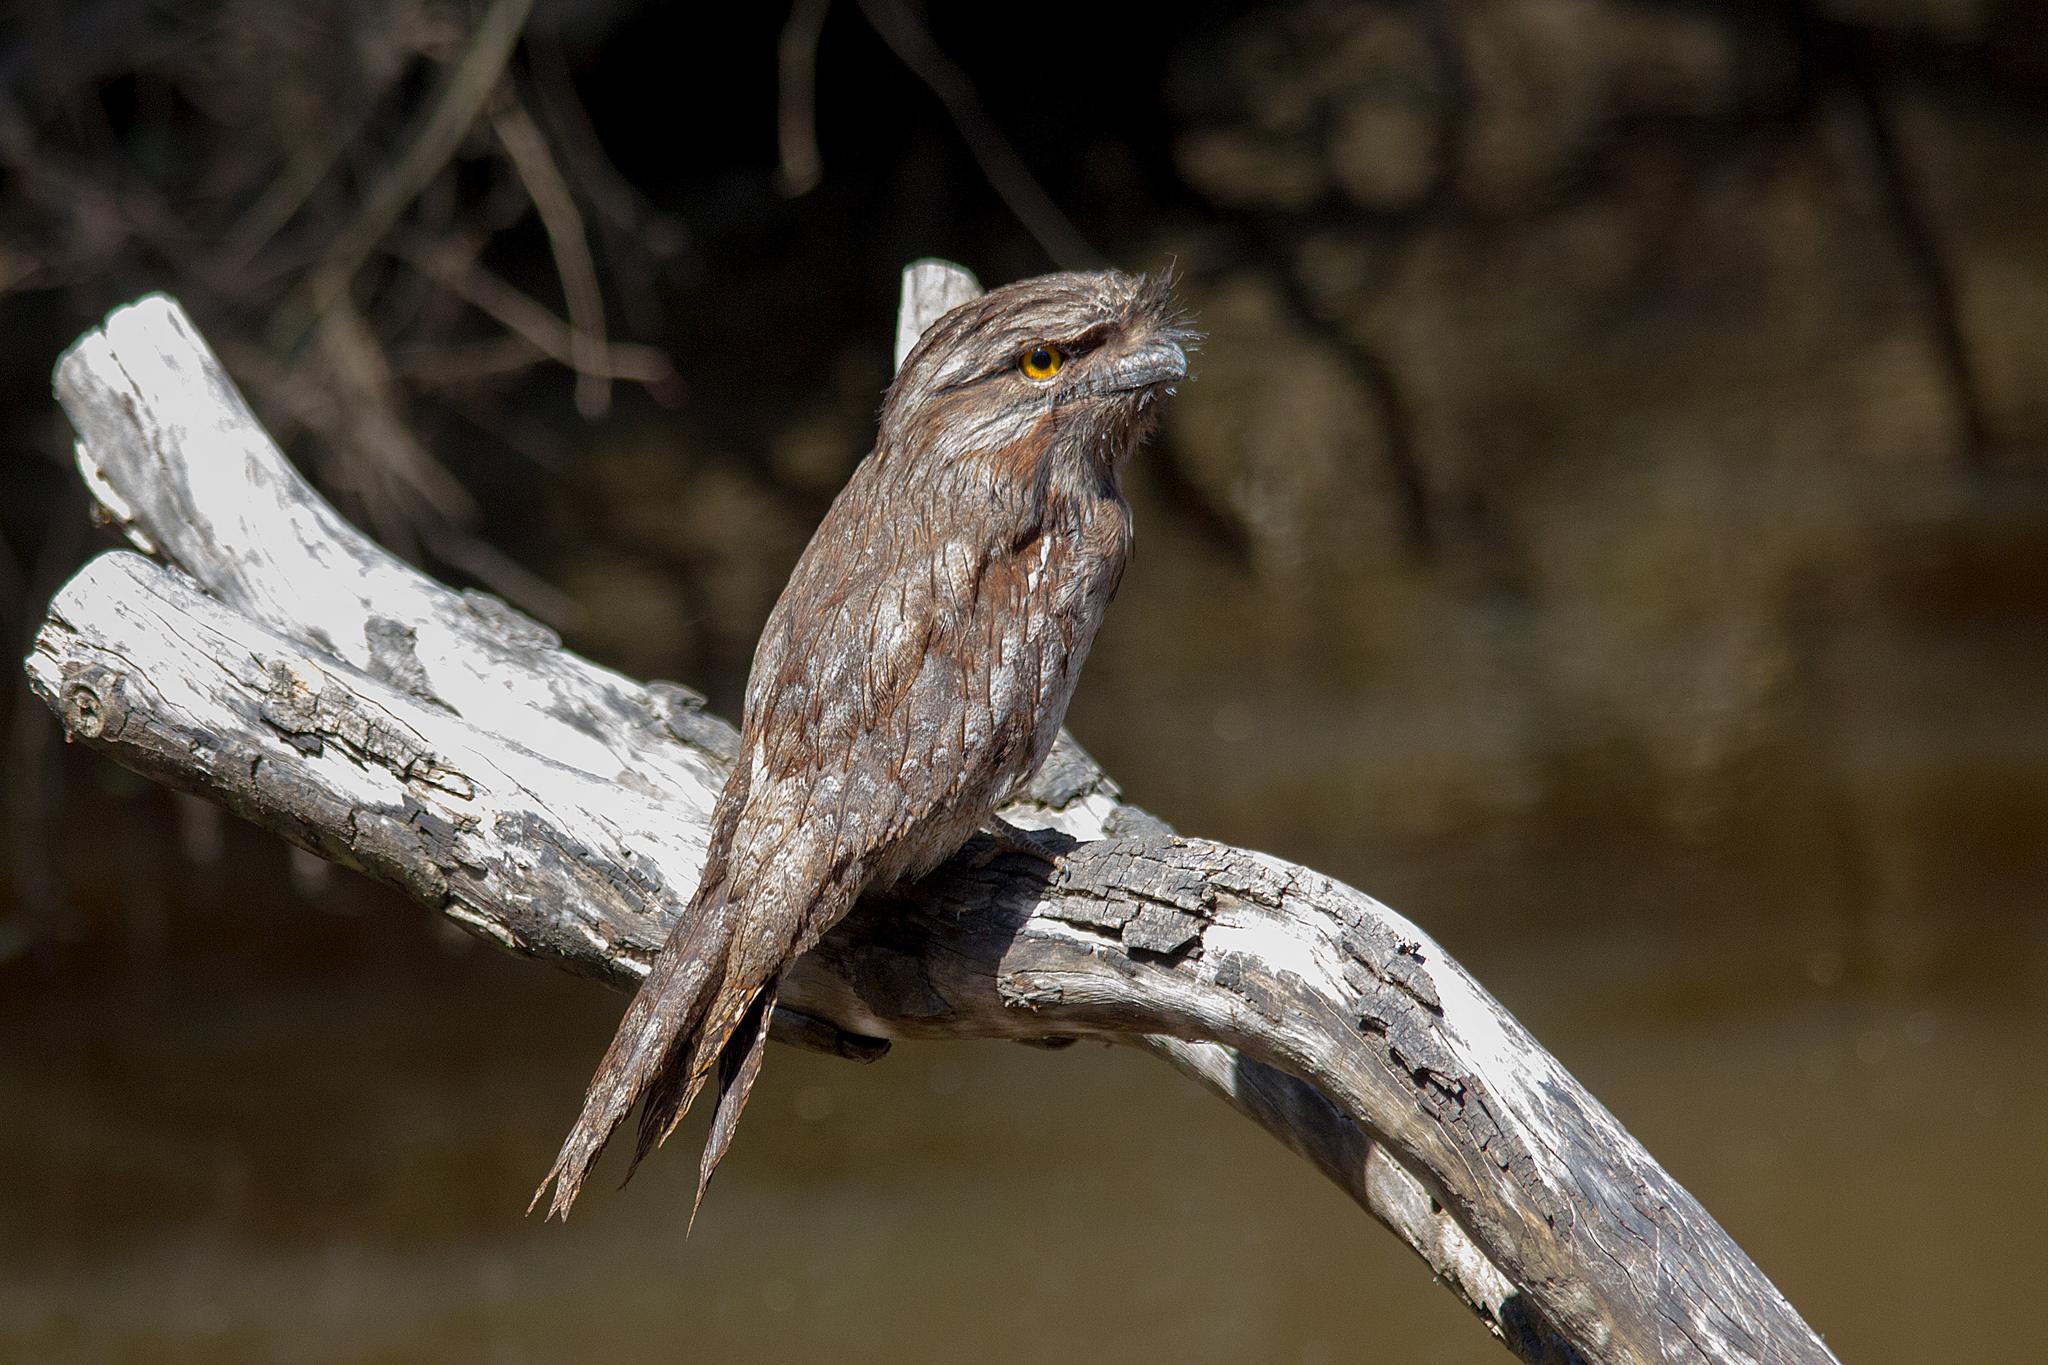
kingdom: Animalia
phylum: Chordata
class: Aves
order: Caprimulgiformes
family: Podargidae
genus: Podargus
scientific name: Podargus strigoides
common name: Tawny frogmouth
